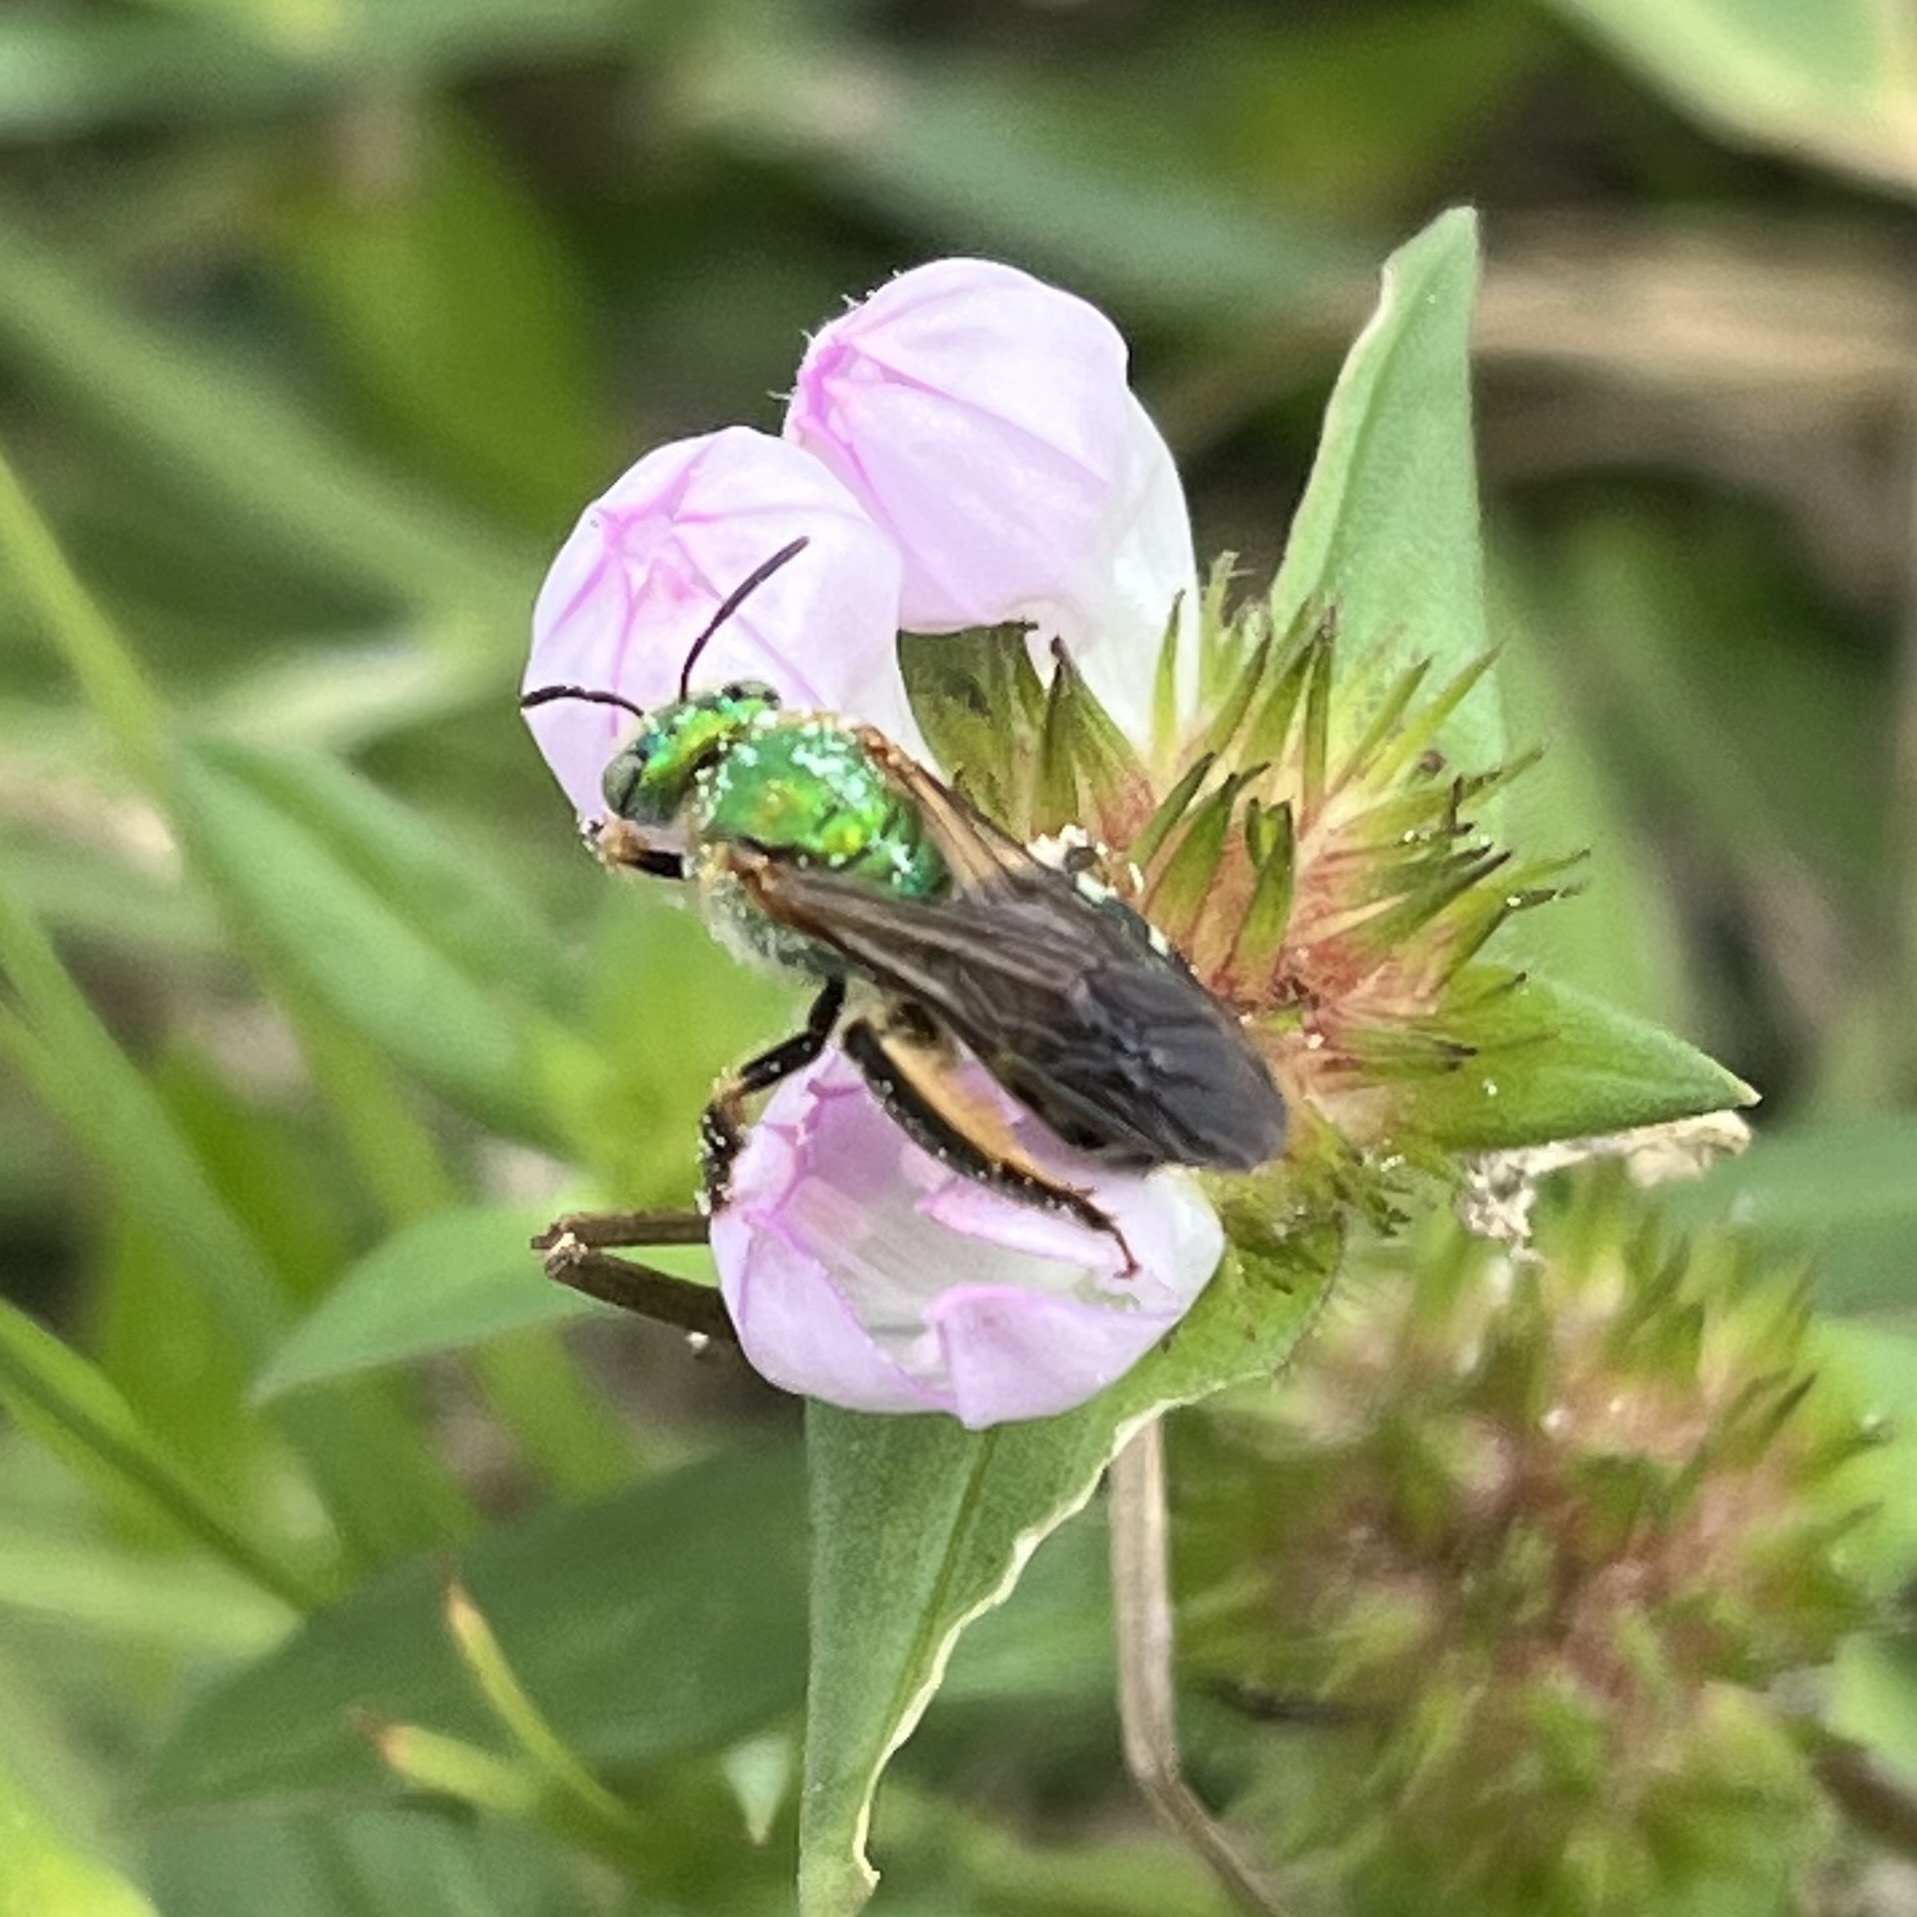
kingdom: Animalia
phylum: Arthropoda
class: Insecta
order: Hymenoptera
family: Halictidae
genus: Agapostemon
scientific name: Agapostemon splendens
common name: Brown-winged striped sweat bee
